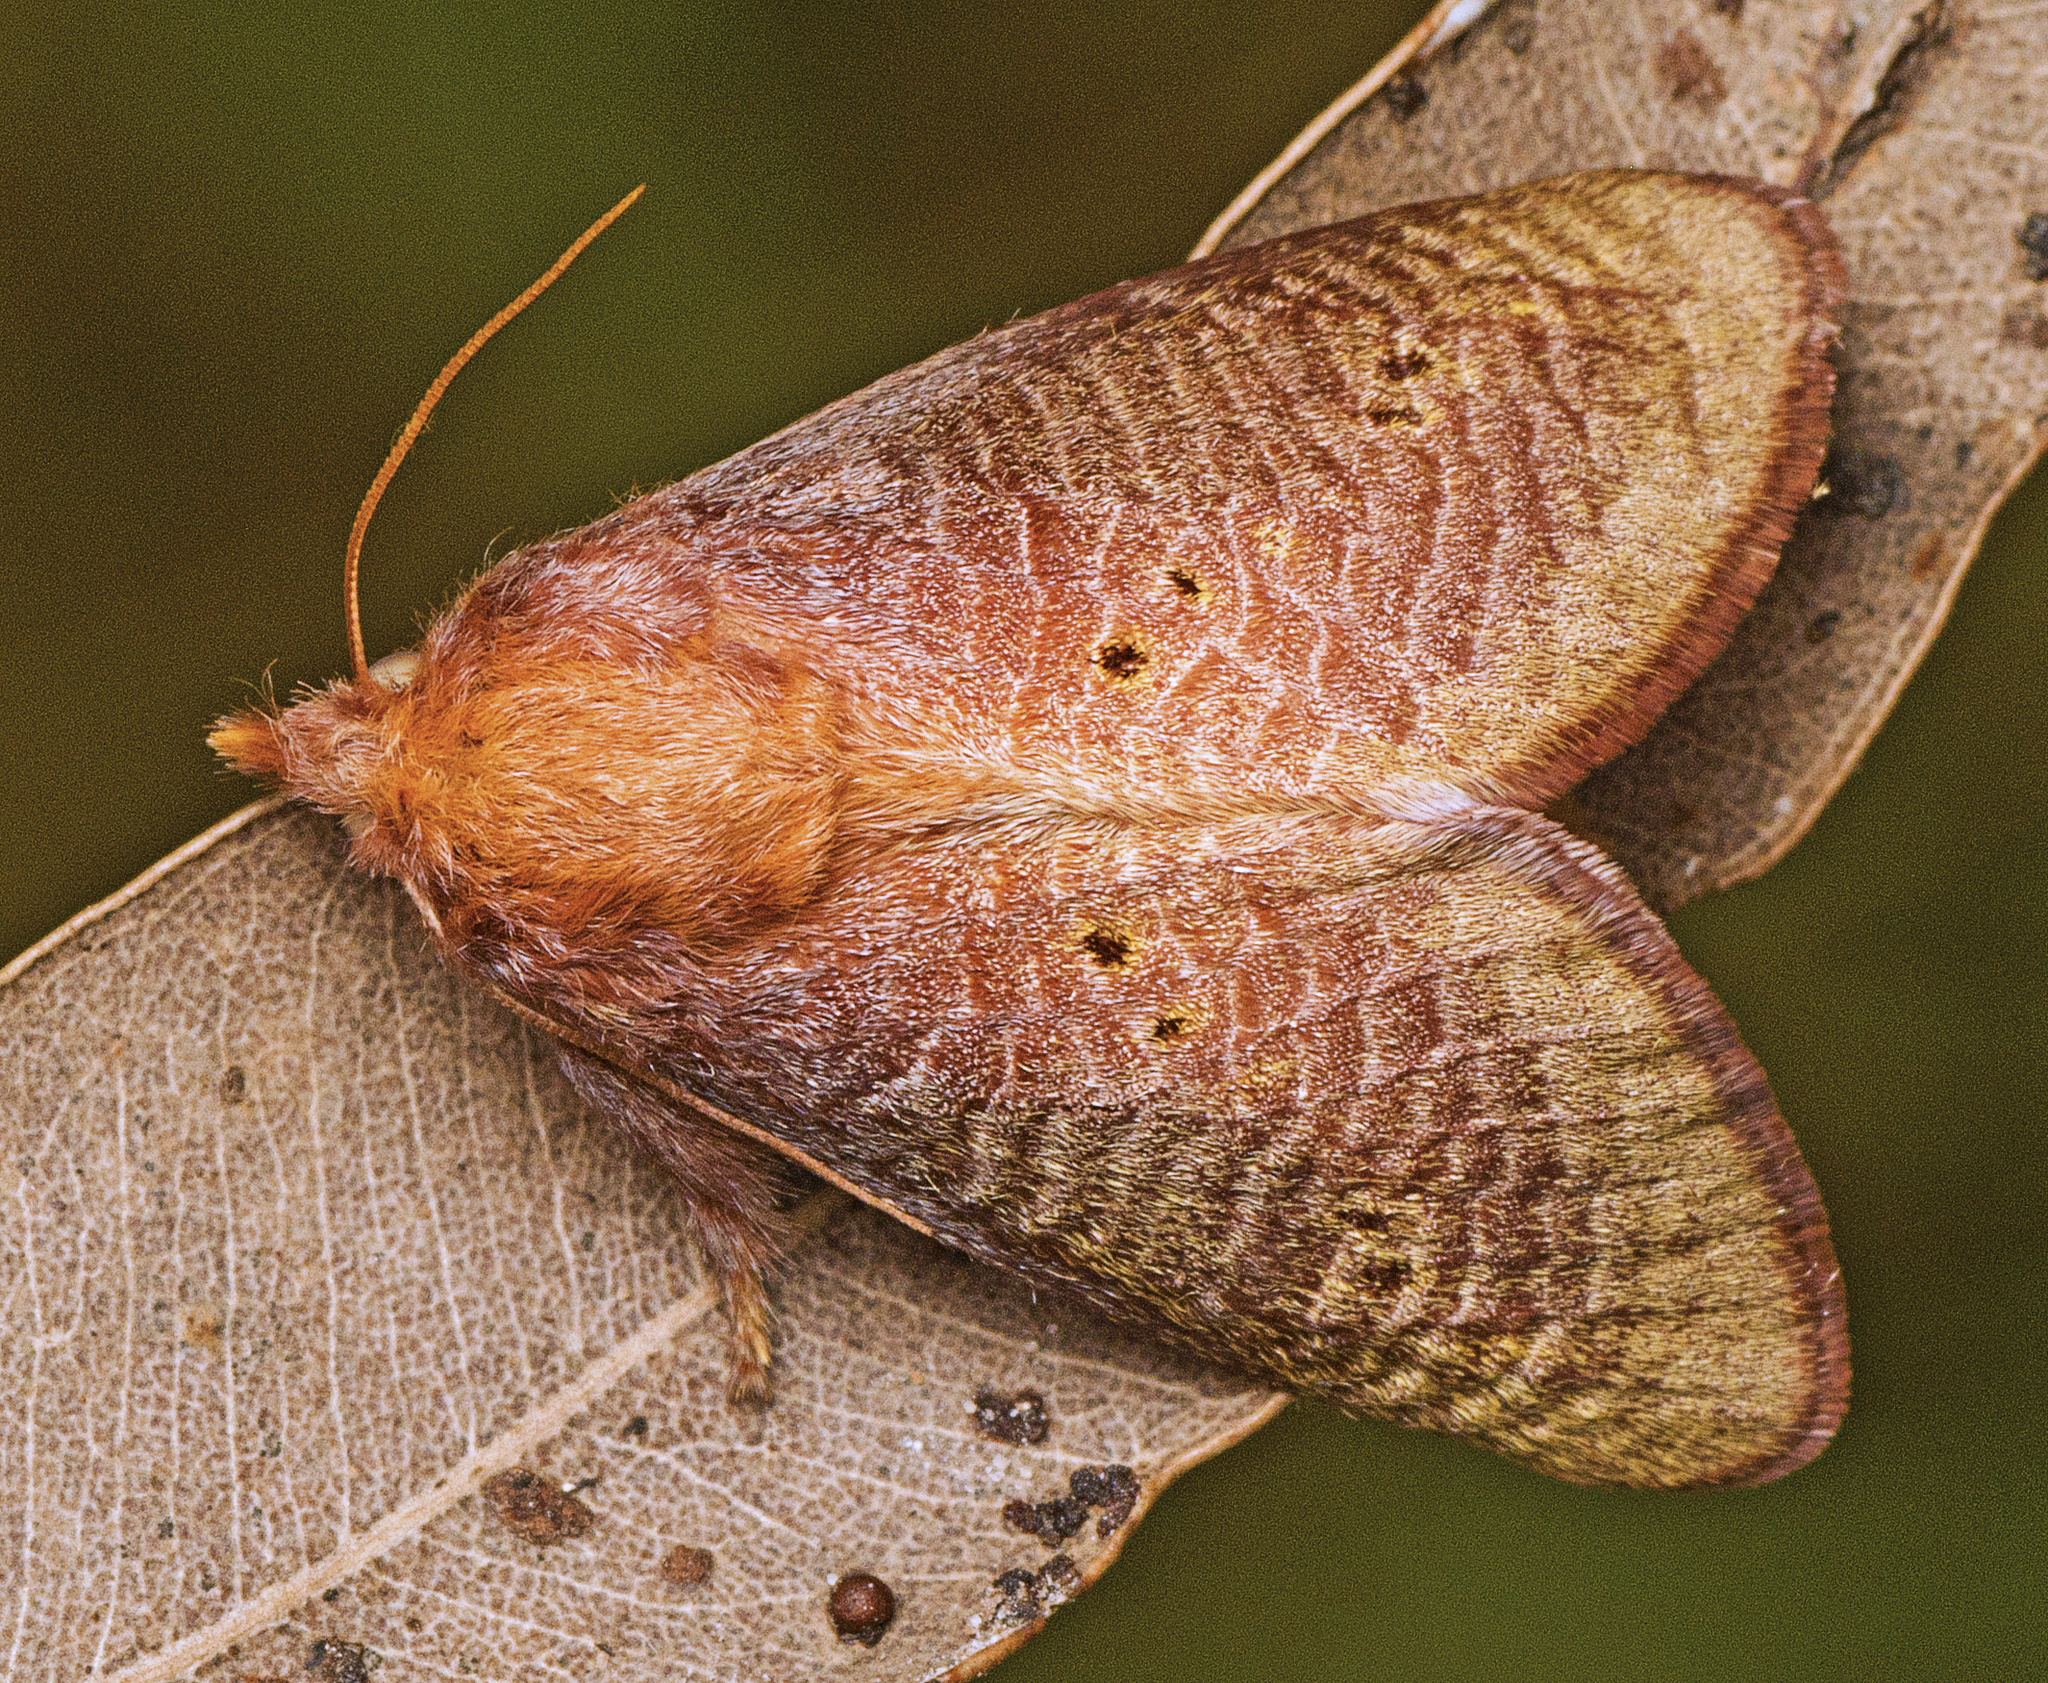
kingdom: Animalia
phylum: Arthropoda
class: Insecta
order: Lepidoptera
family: Limacodidae
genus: Doratifera
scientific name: Doratifera quadriguttata
